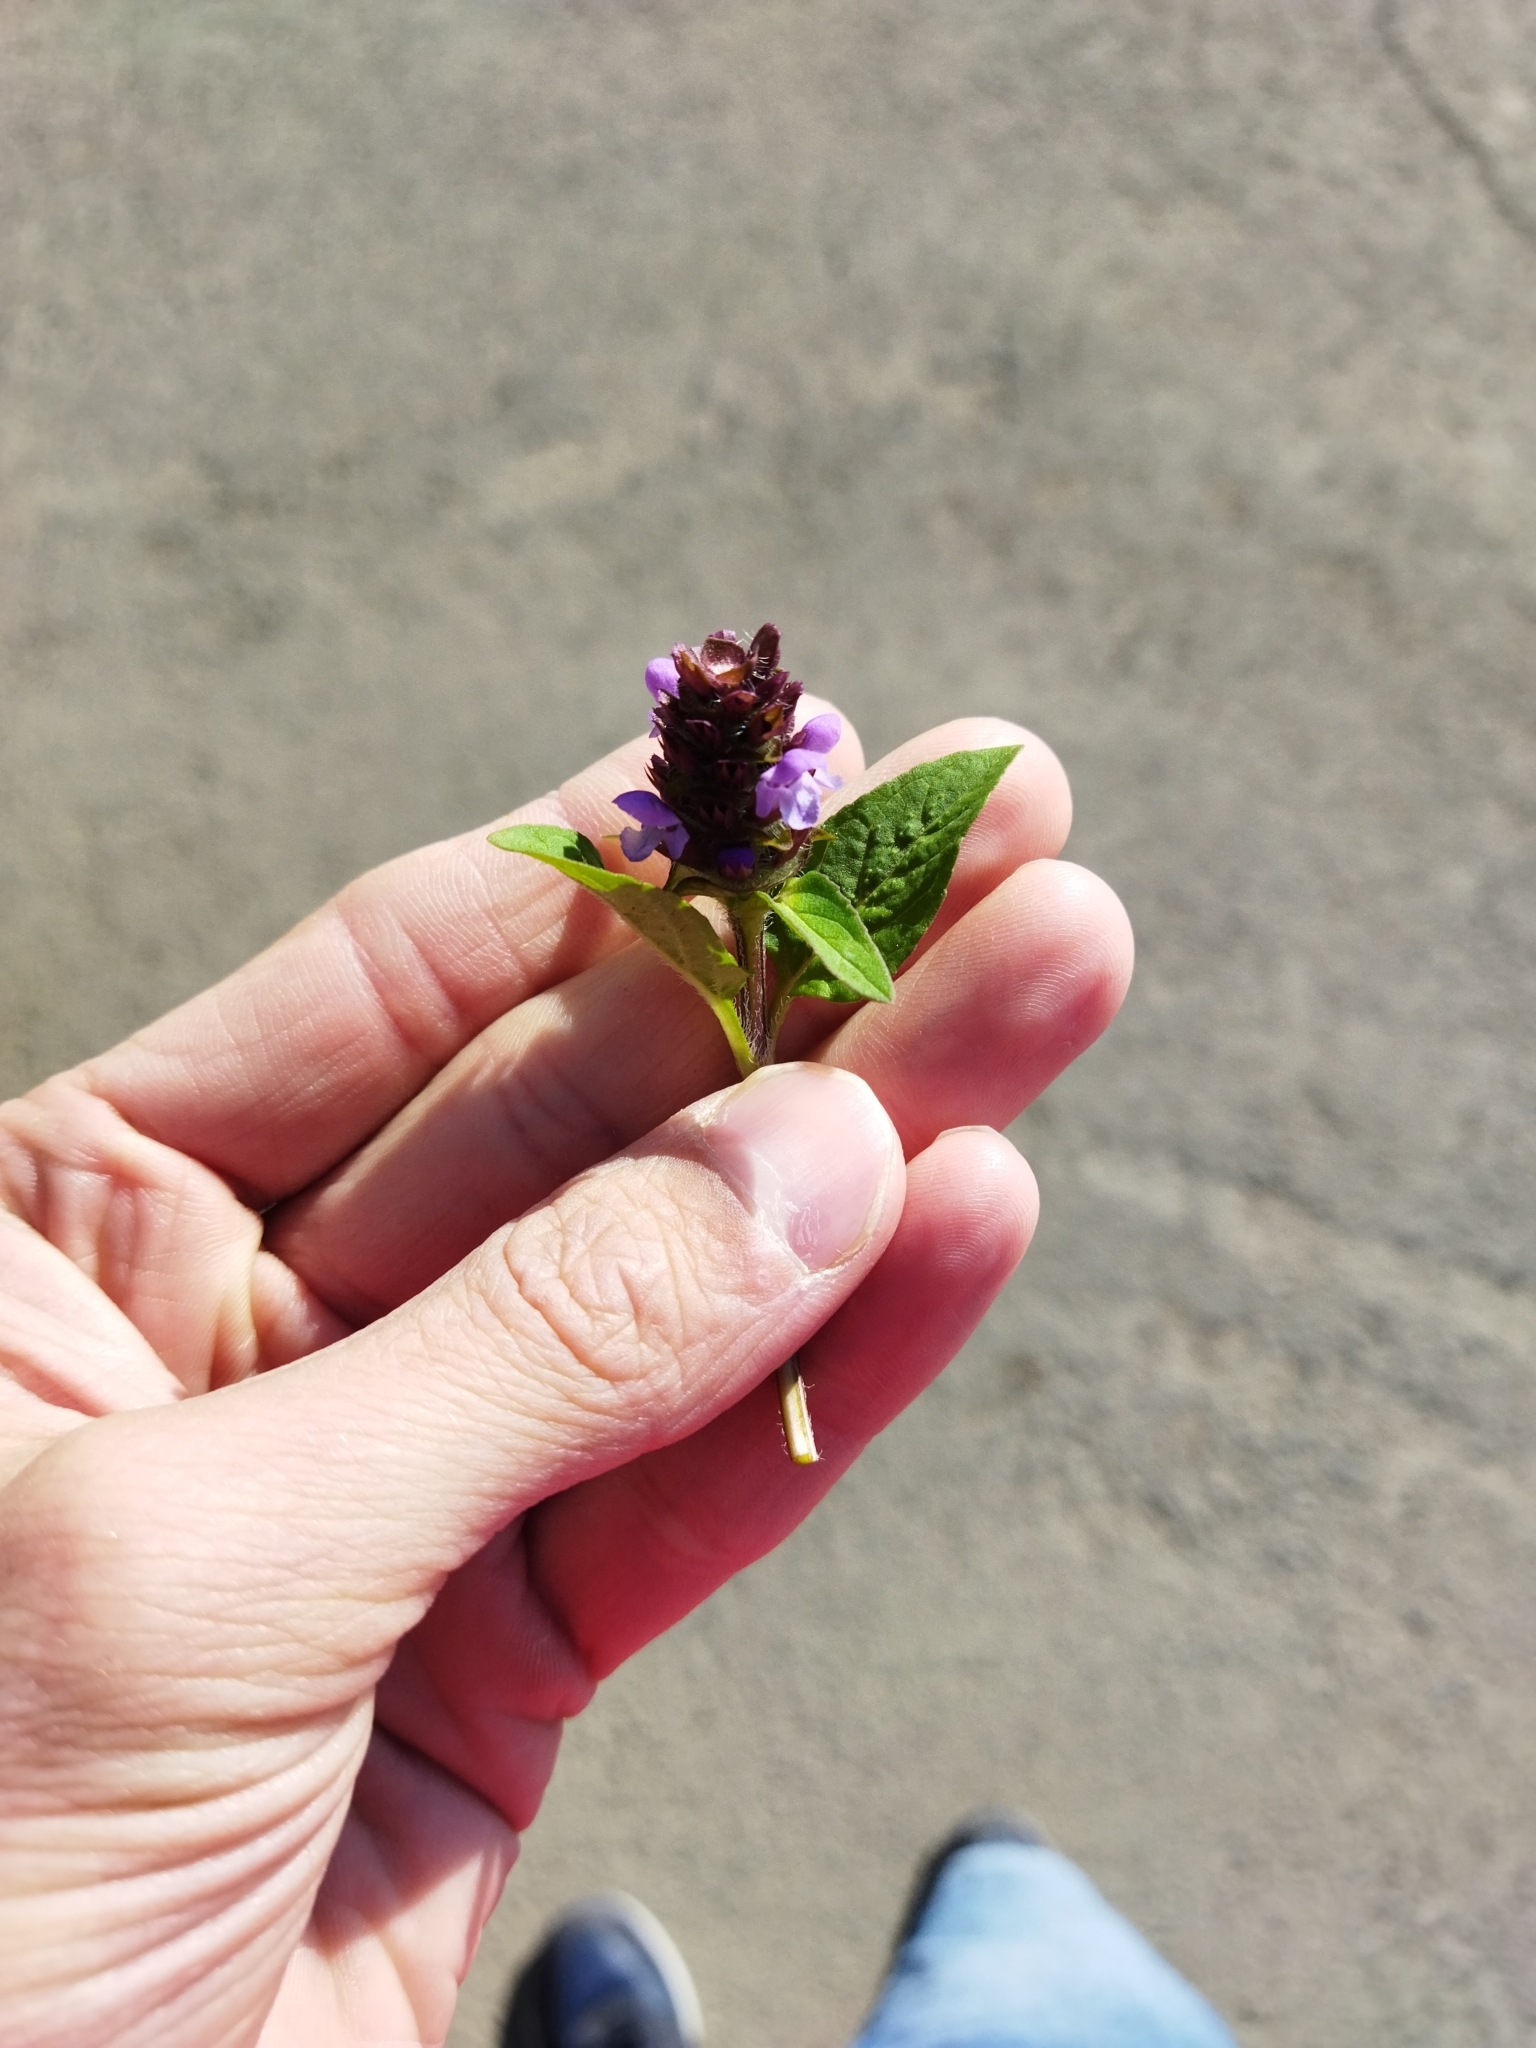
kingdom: Plantae
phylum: Tracheophyta
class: Magnoliopsida
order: Lamiales
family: Lamiaceae
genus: Prunella
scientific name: Prunella vulgaris
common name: Heal-all
